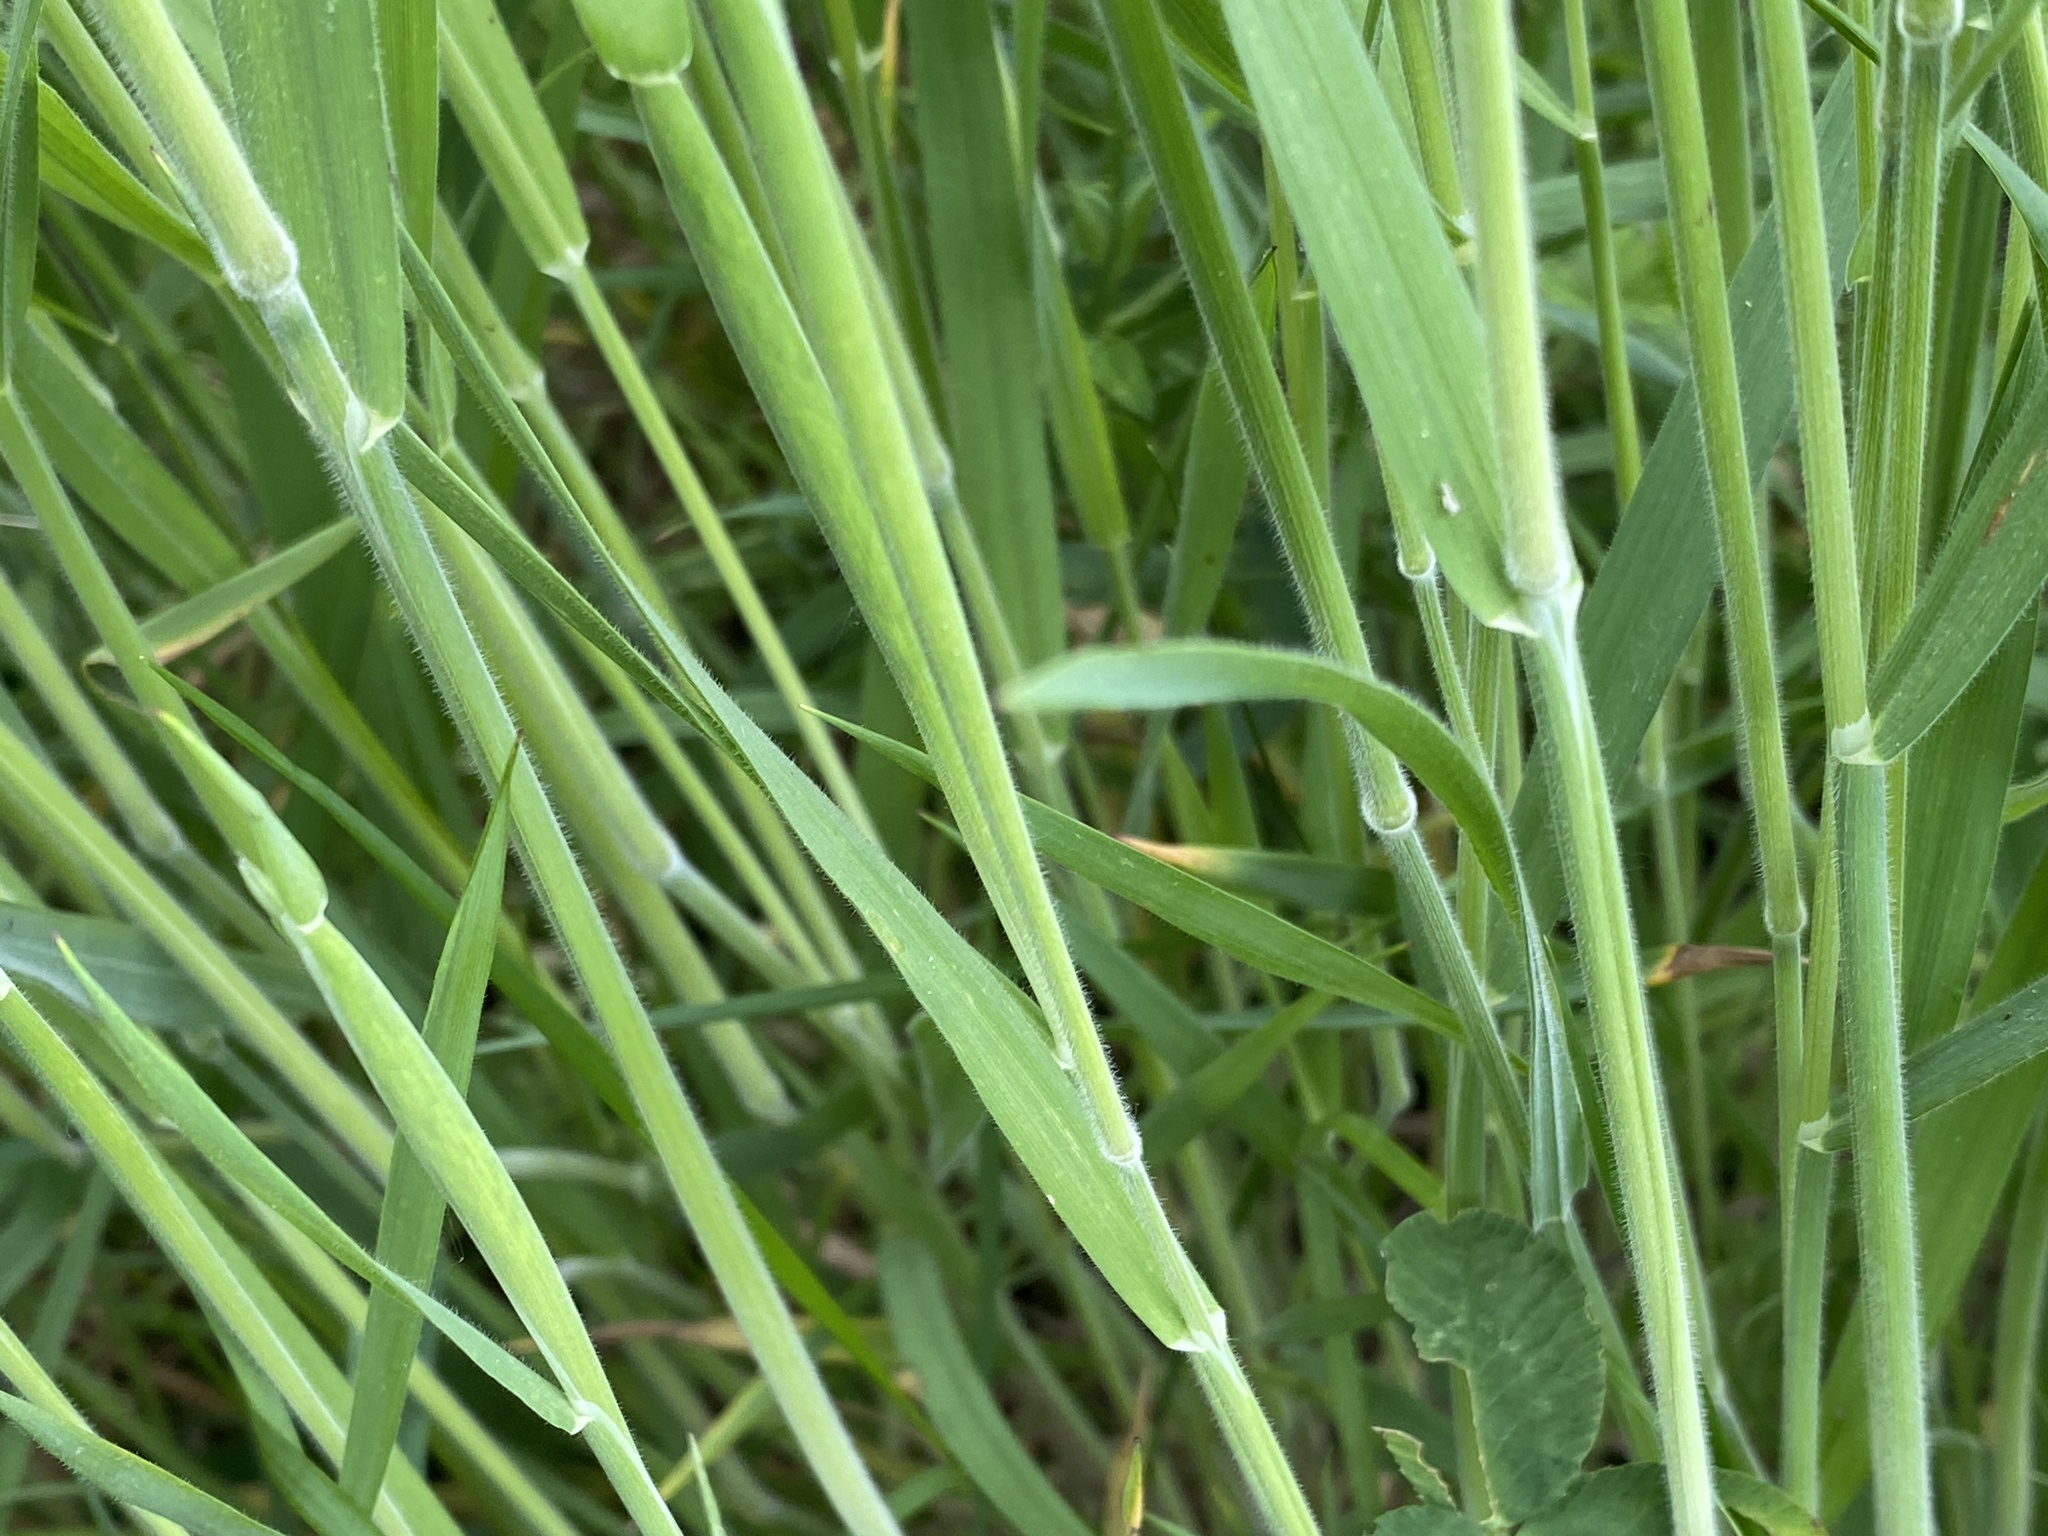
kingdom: Plantae
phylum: Tracheophyta
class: Liliopsida
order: Poales
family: Poaceae
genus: Holcus
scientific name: Holcus lanatus
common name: Yorkshire-fog
